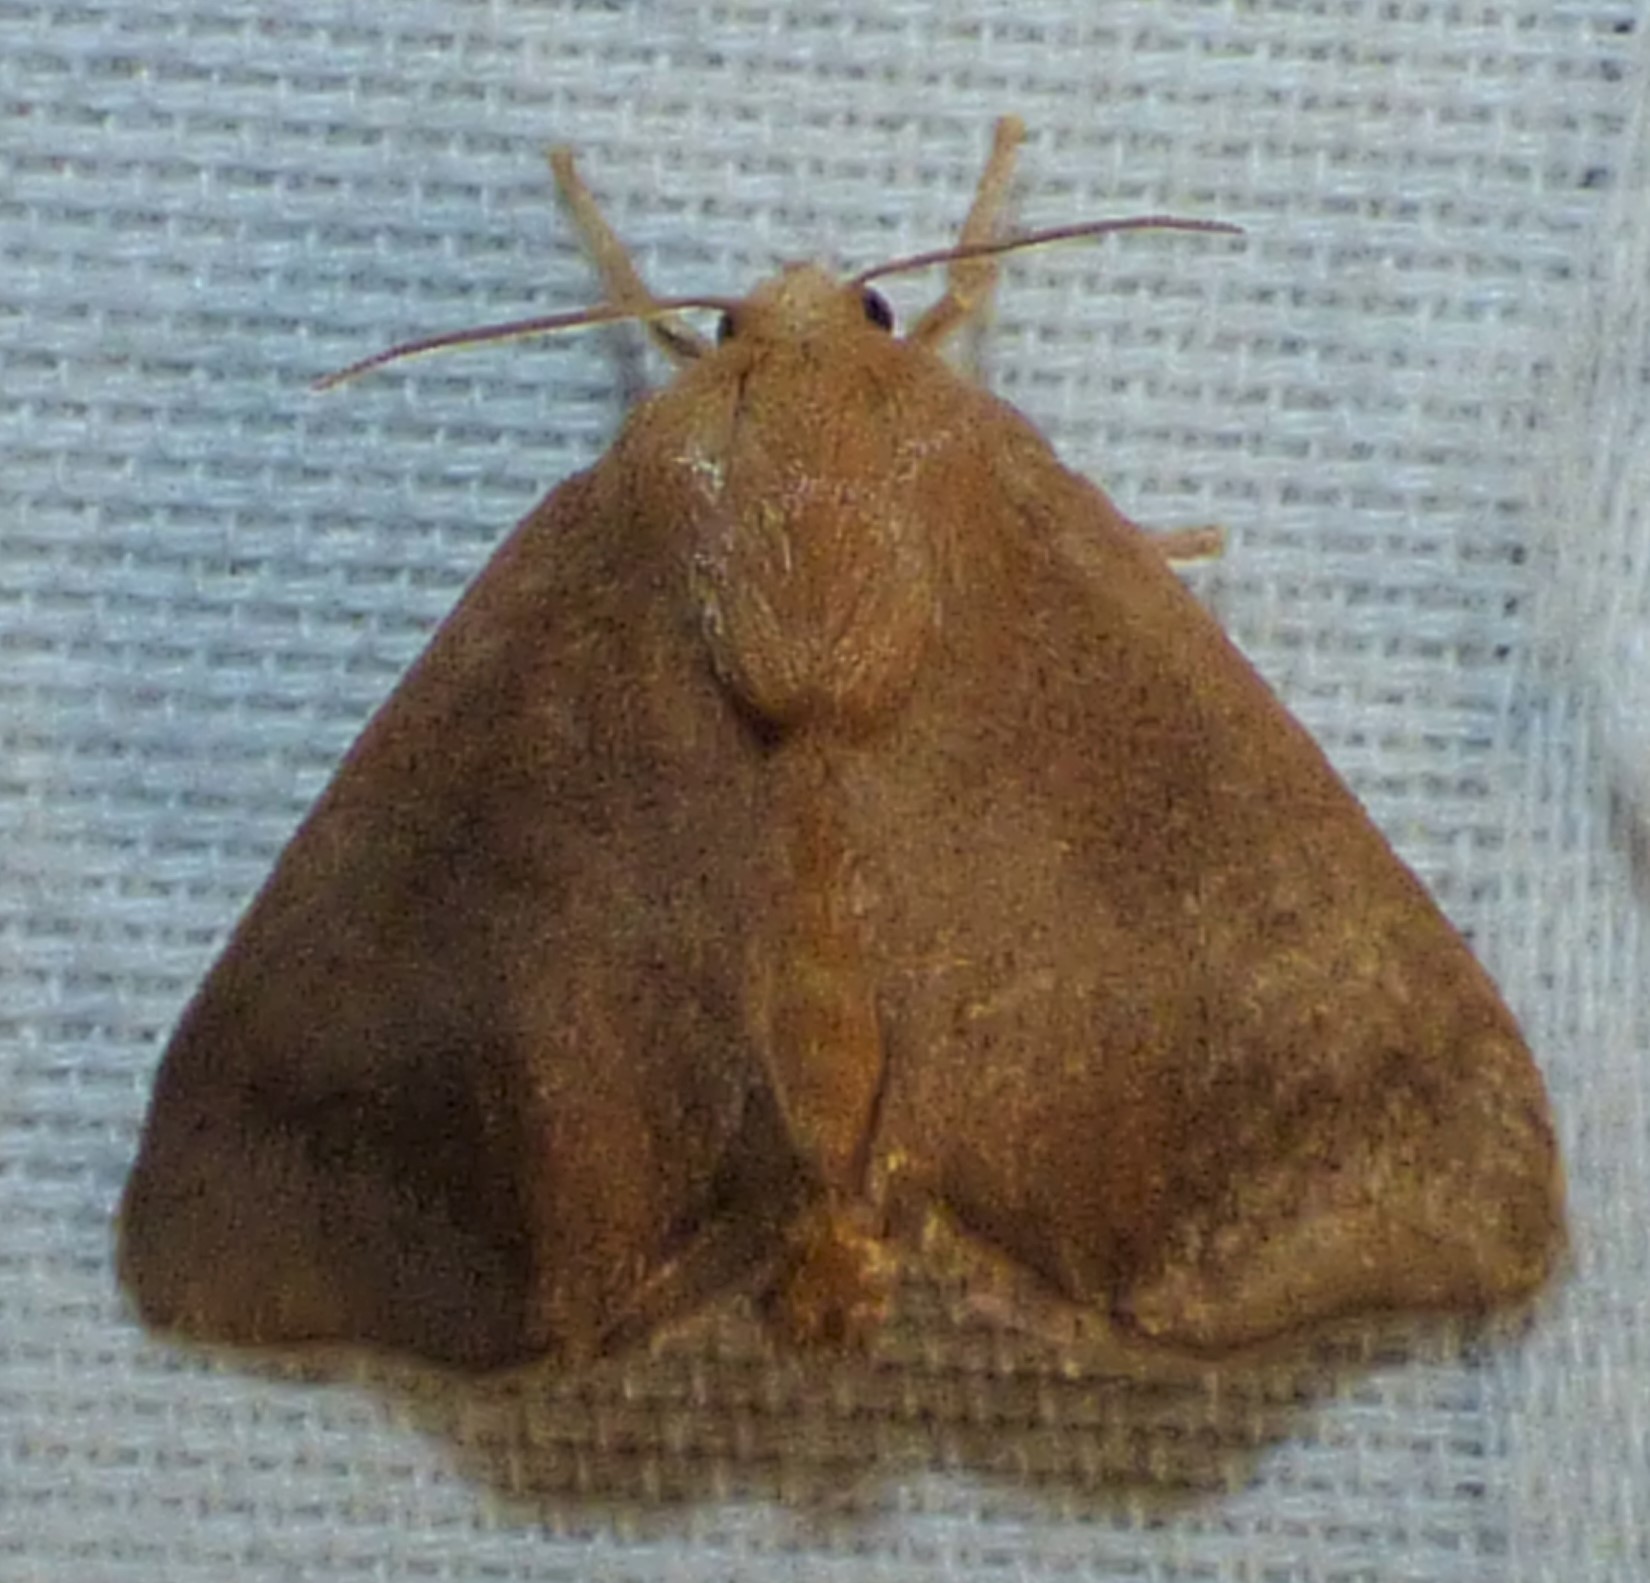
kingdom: Animalia
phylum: Arthropoda
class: Insecta
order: Lepidoptera
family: Limacodidae
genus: Isa
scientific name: Isa textula
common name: Crowned slug moth
